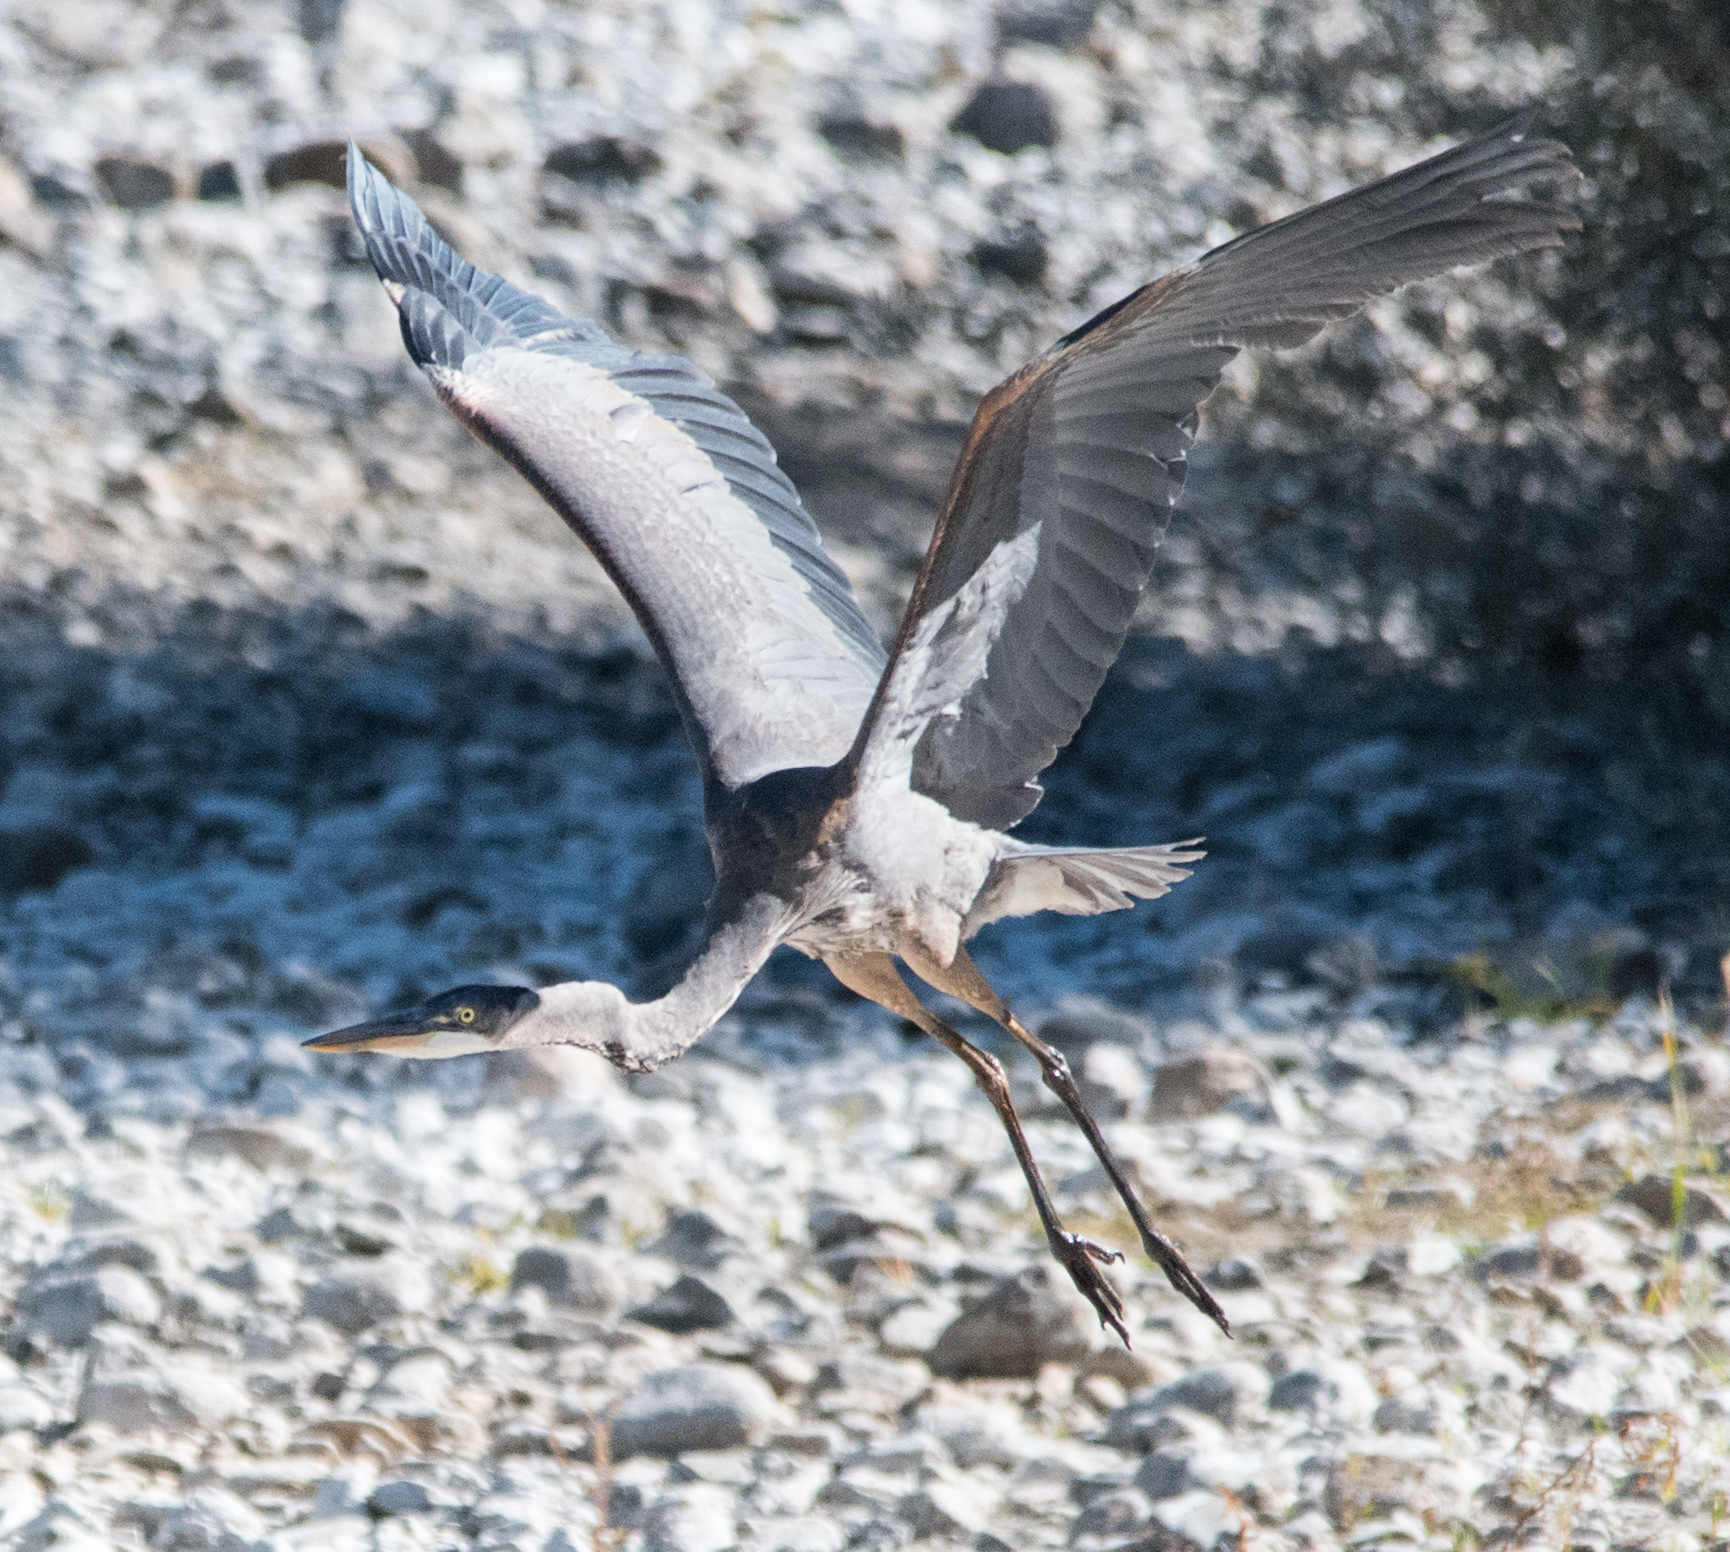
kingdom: Animalia
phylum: Chordata
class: Aves
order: Pelecaniformes
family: Ardeidae
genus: Ardea
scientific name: Ardea herodias
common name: Great blue heron
